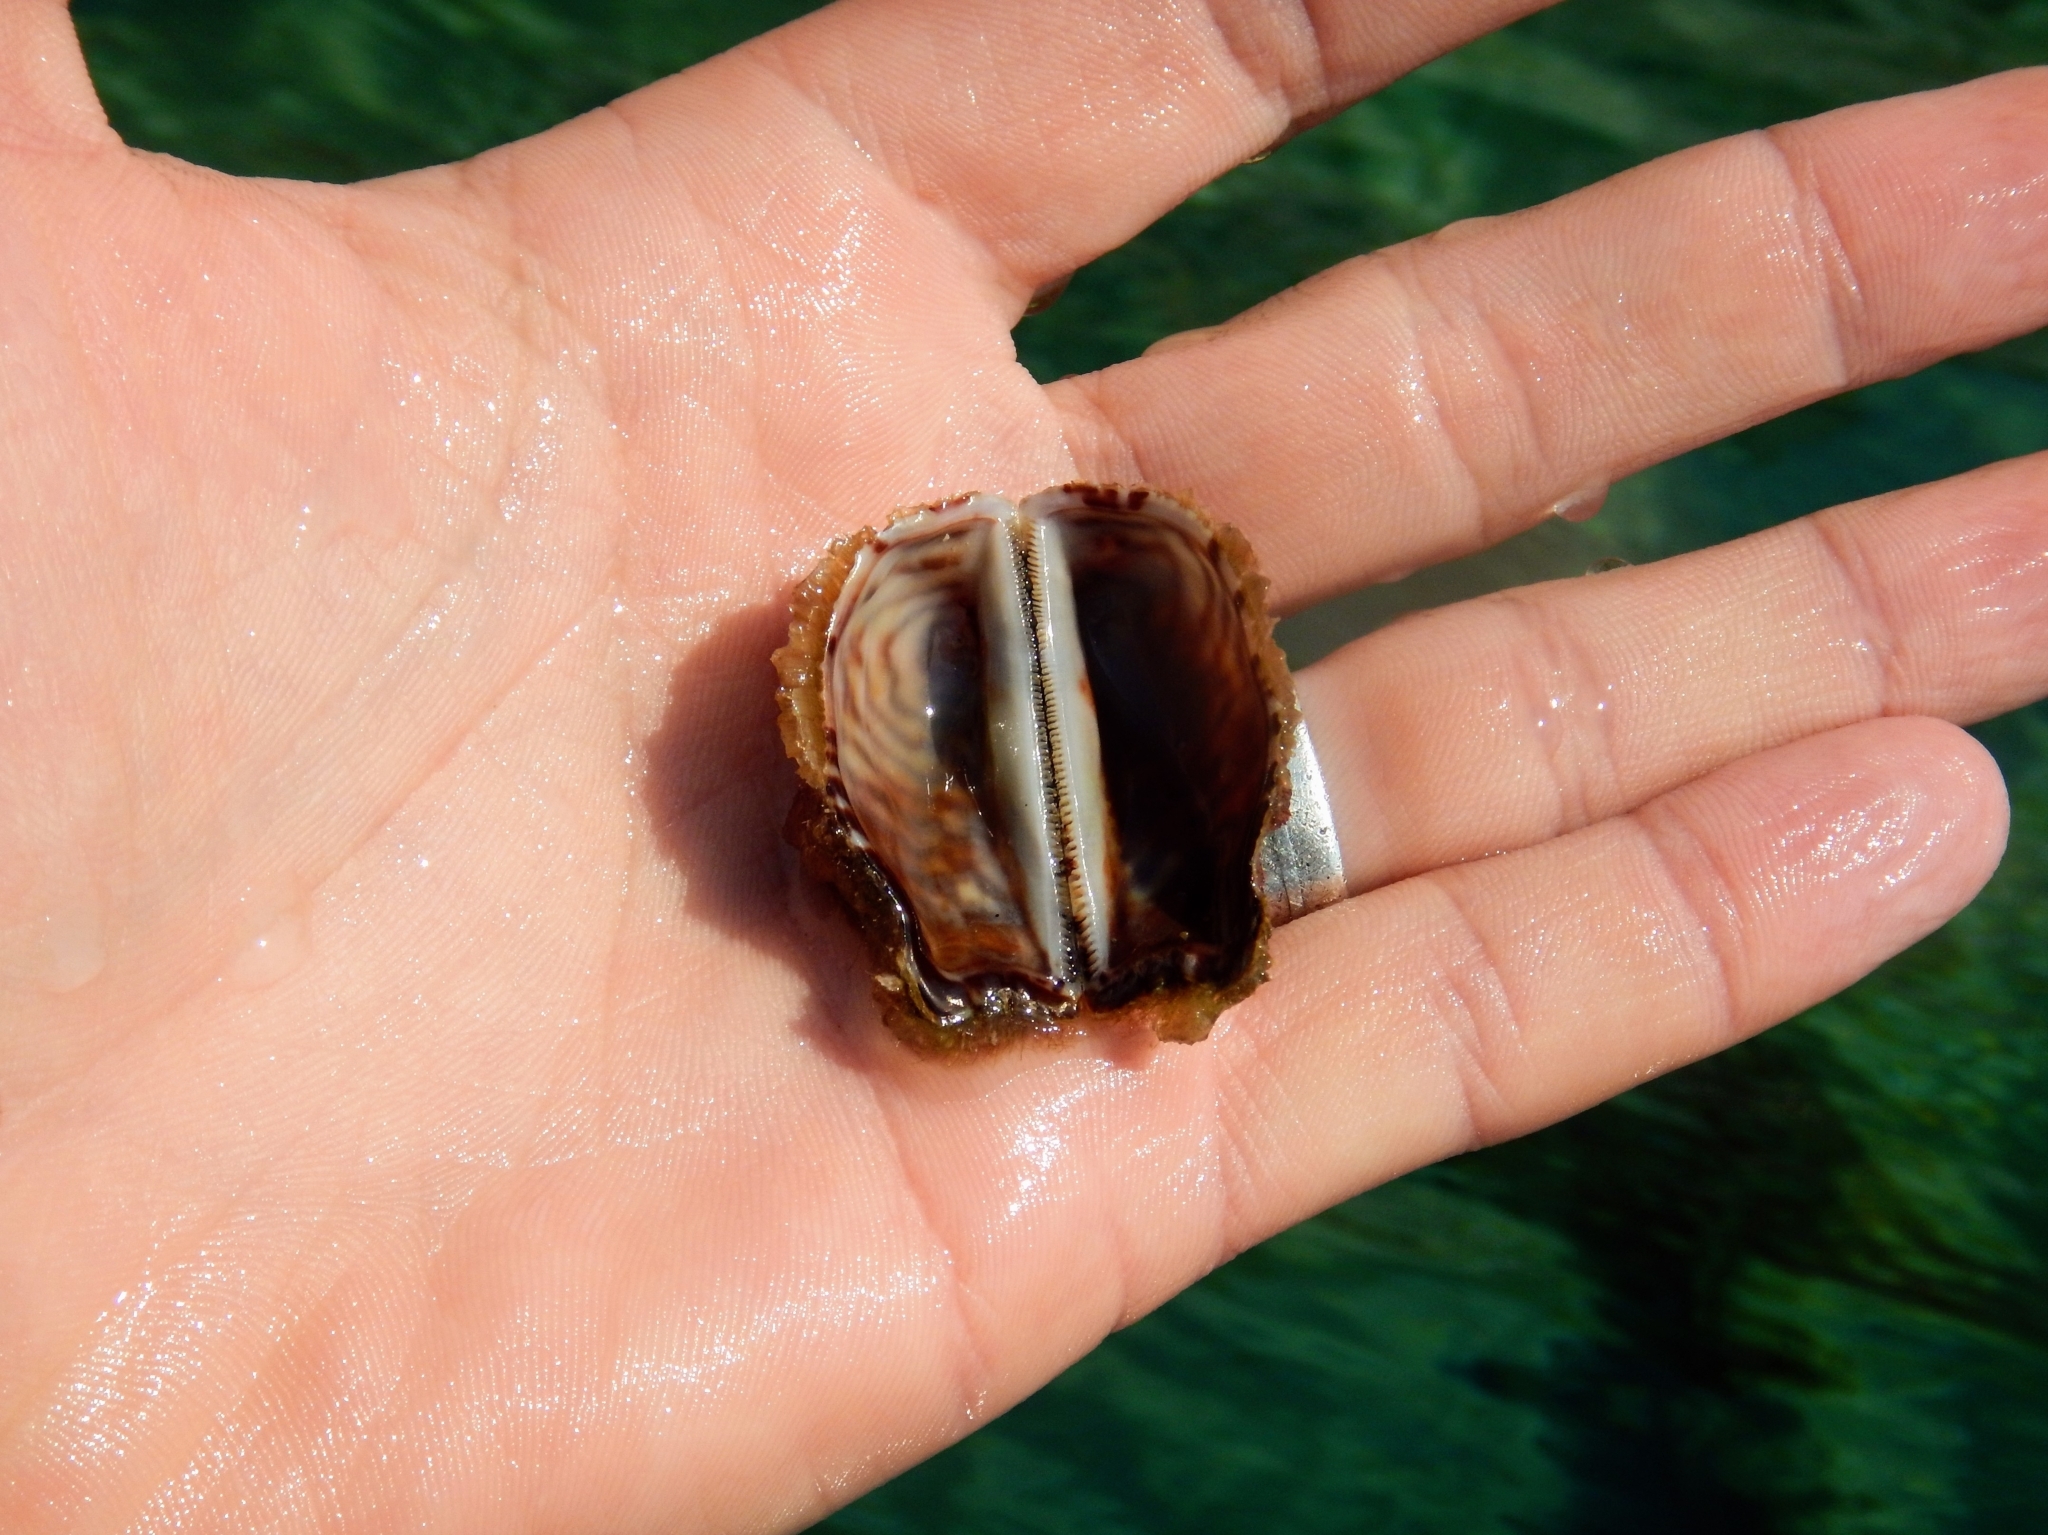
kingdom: Animalia
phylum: Mollusca
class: Bivalvia
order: Arcida
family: Arcidae
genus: Arca
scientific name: Arca noae
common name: Noah's arch
